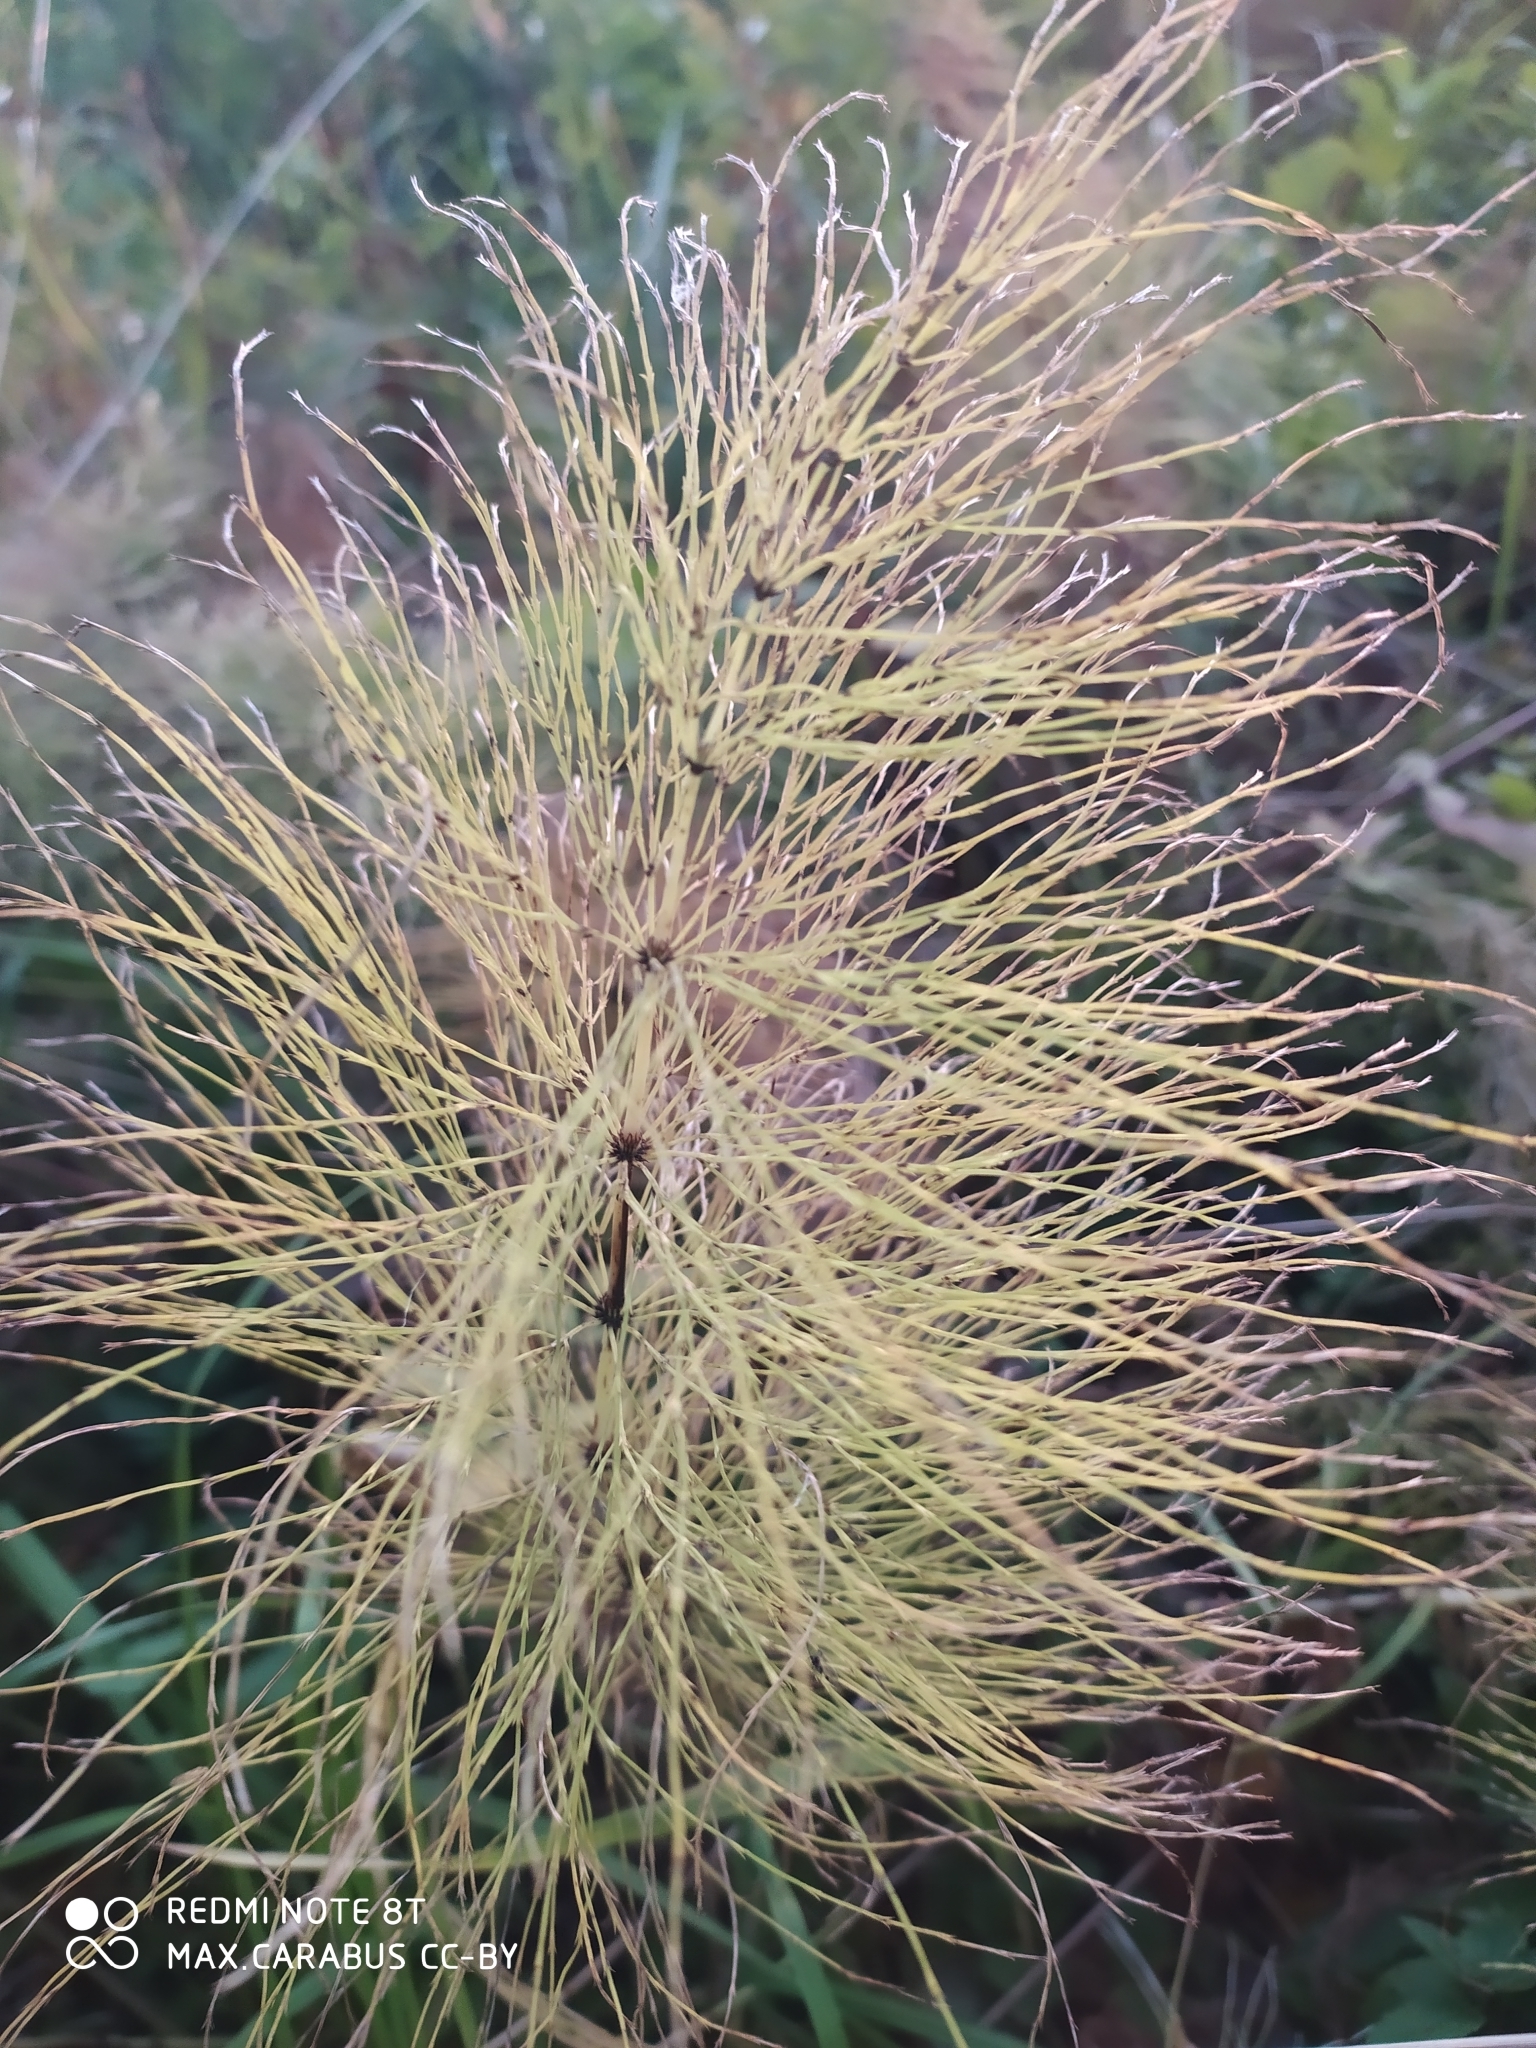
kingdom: Plantae
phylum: Tracheophyta
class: Polypodiopsida
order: Equisetales
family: Equisetaceae
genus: Equisetum
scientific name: Equisetum sylvaticum
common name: Wood horsetail
